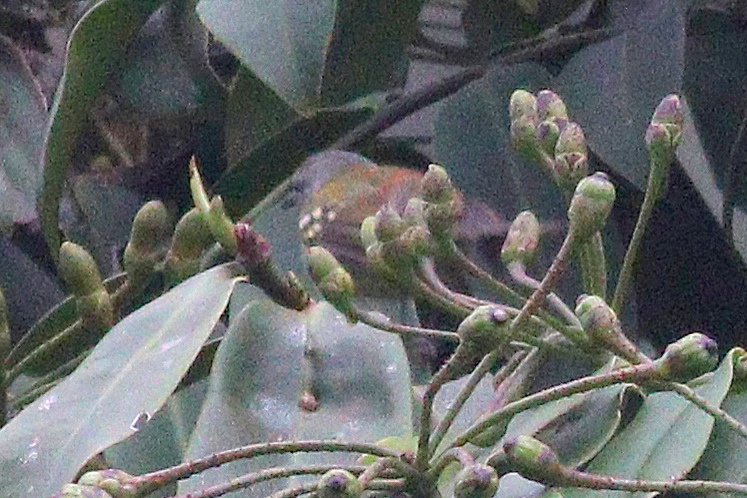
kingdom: Animalia
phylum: Chordata
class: Aves
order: Passeriformes
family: Thamnophilidae
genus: Terenura
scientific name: Terenura callinota
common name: Rufous-rumped antwren
